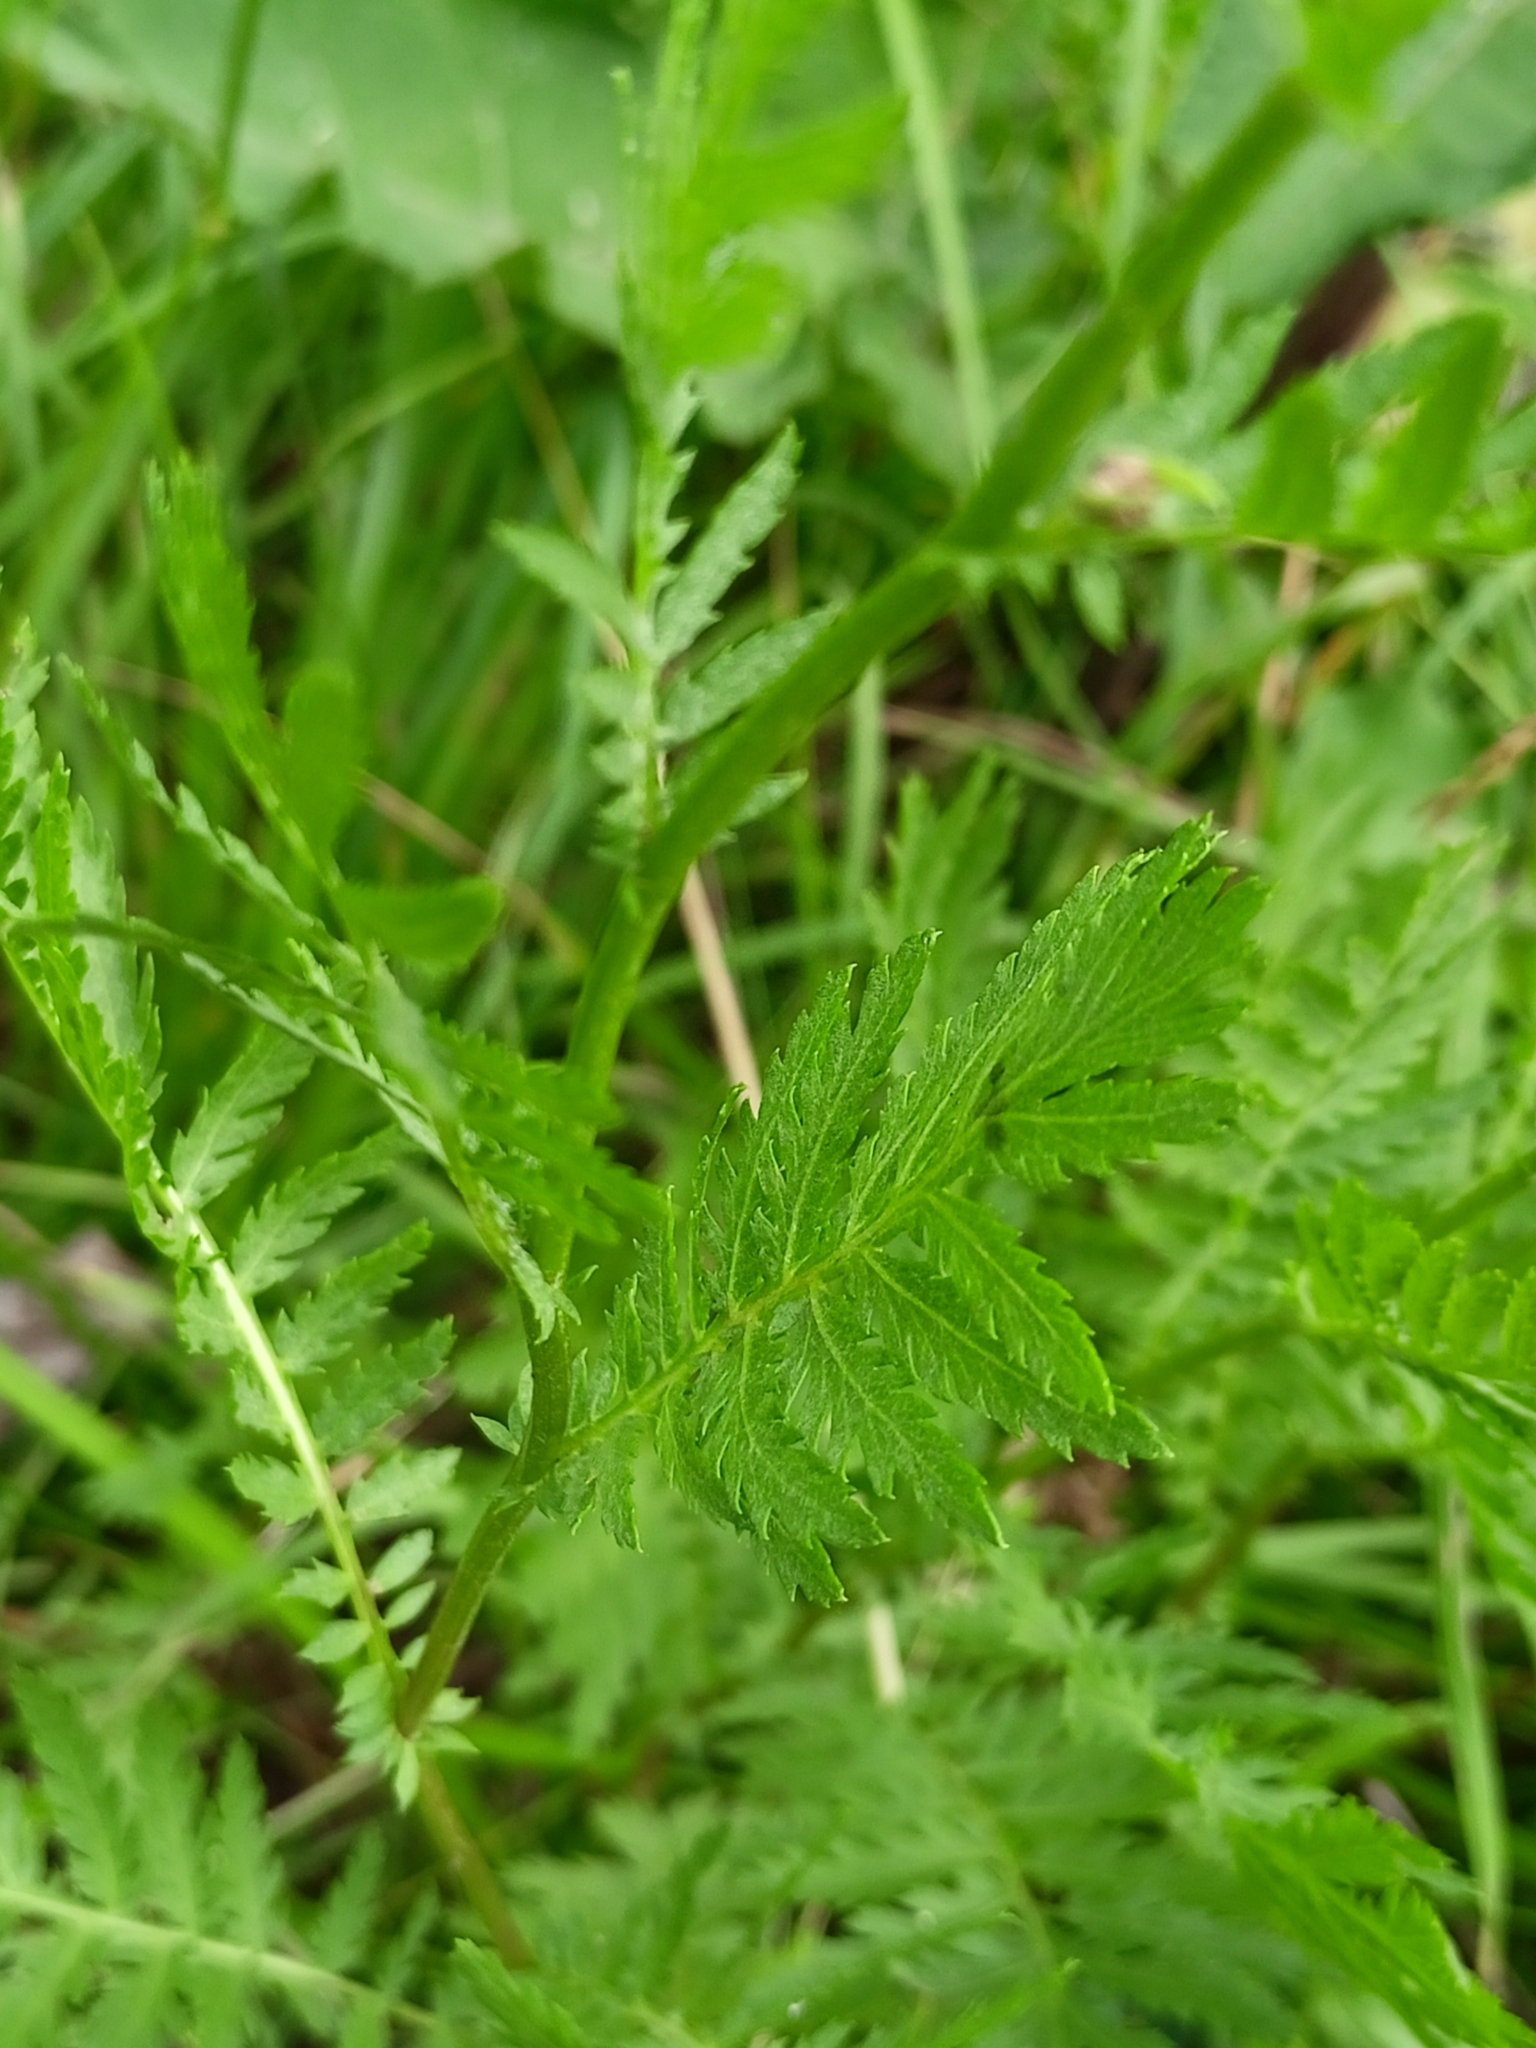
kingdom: Plantae
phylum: Tracheophyta
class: Magnoliopsida
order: Asterales
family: Asteraceae
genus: Tanacetum
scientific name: Tanacetum vulgare
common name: Common tansy
